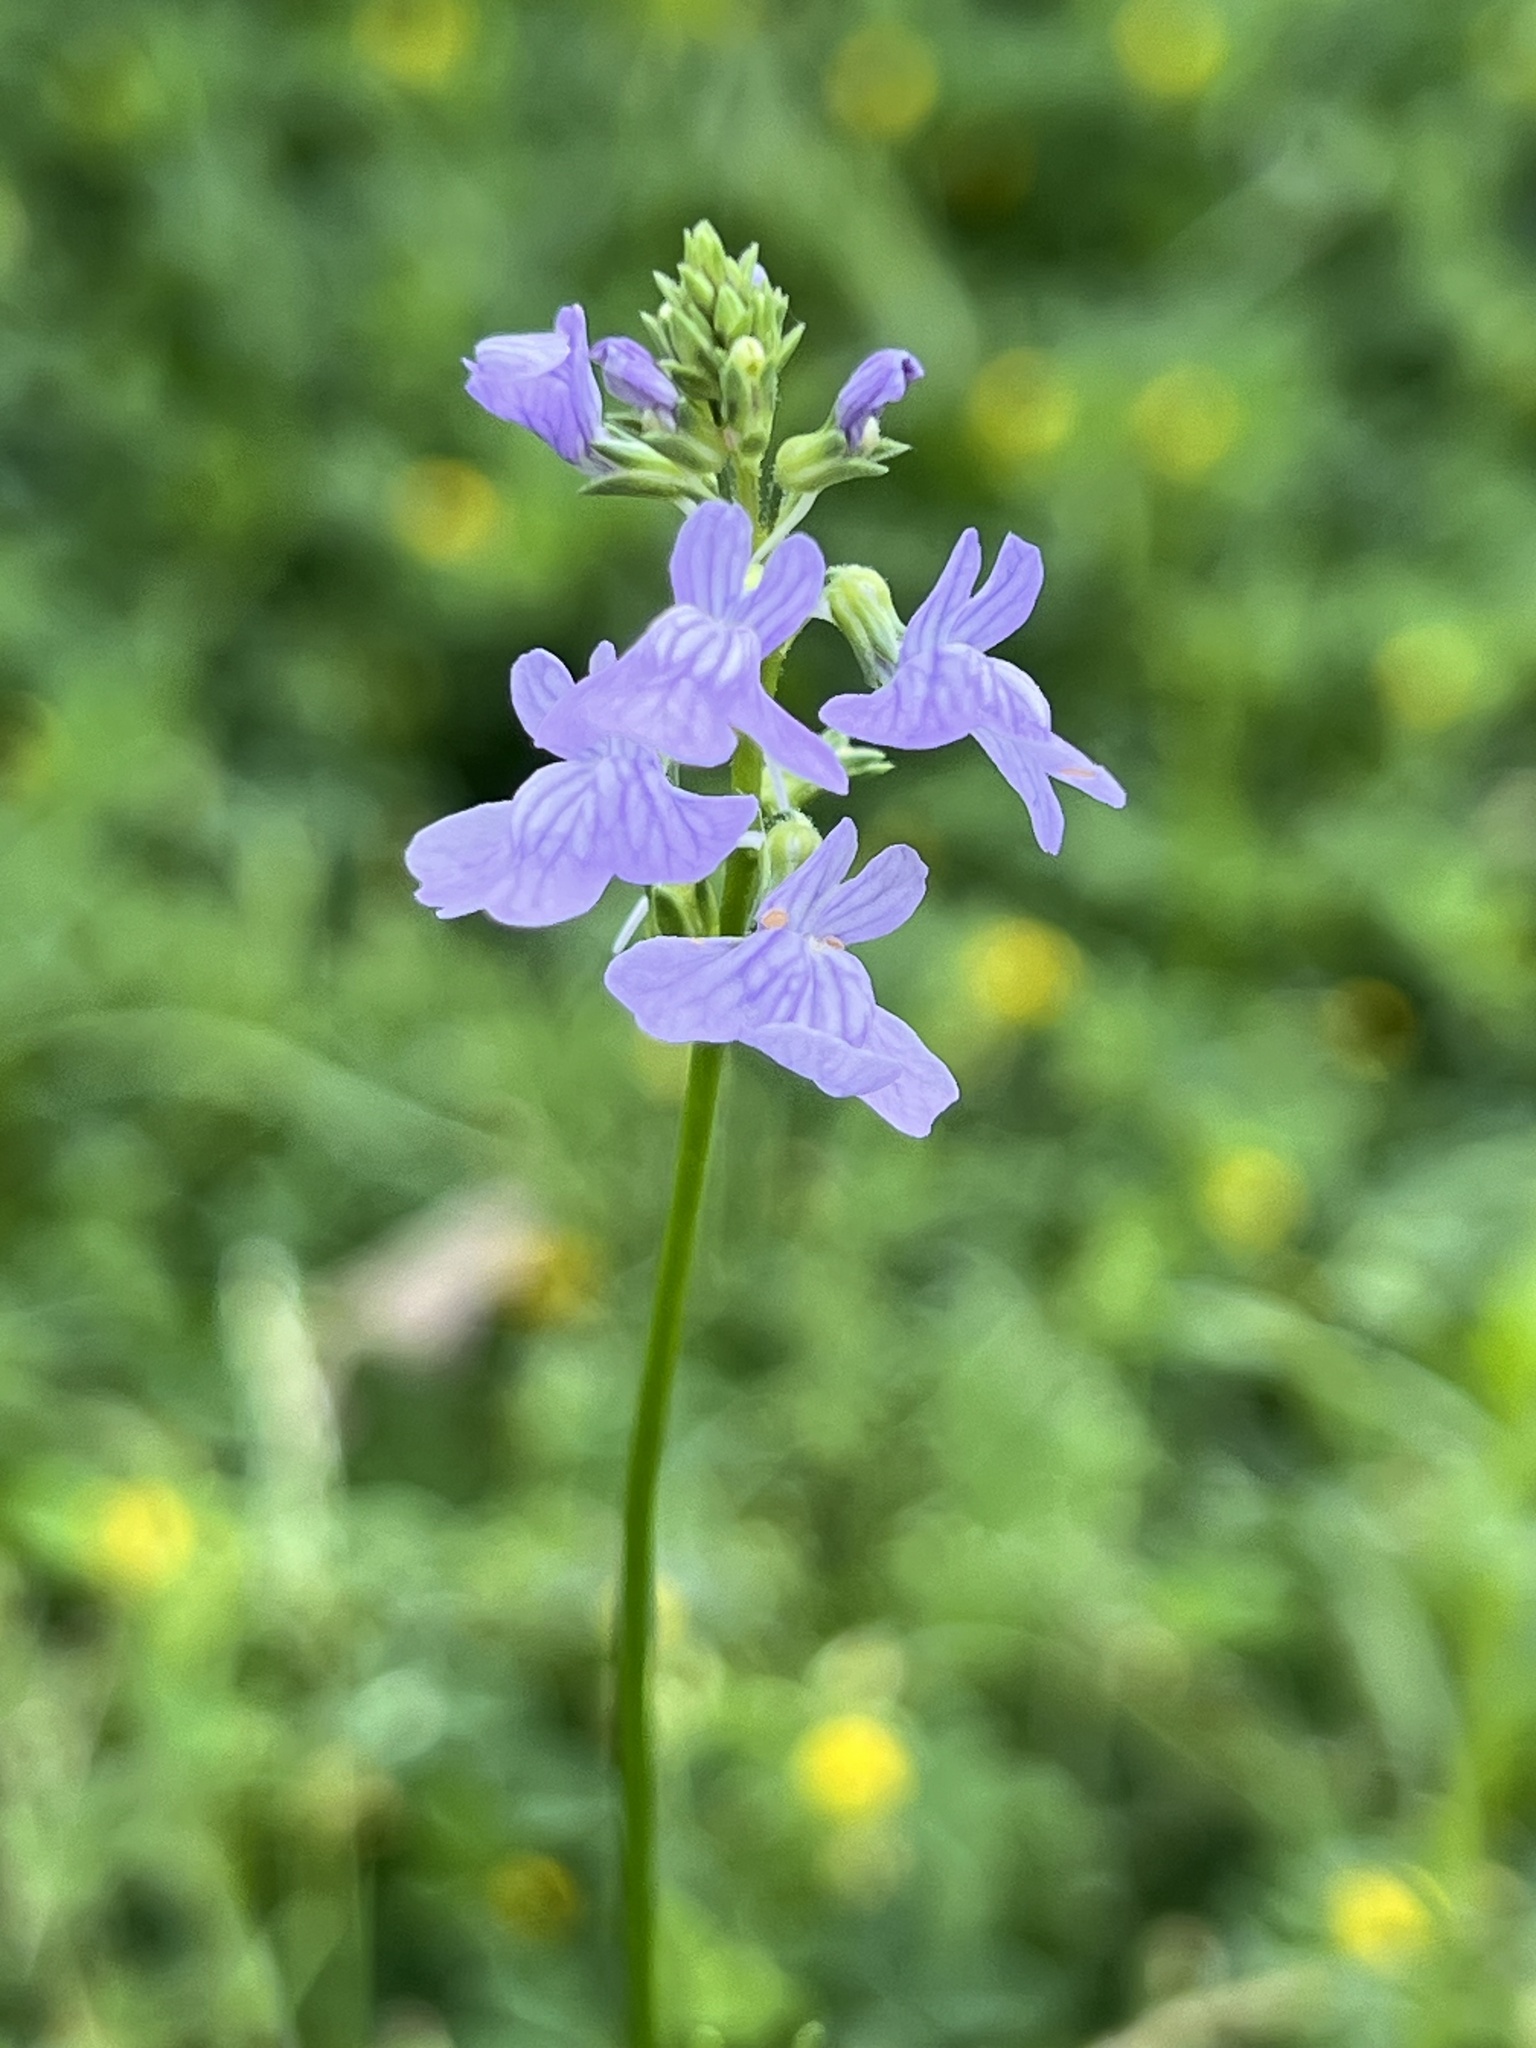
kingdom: Plantae
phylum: Tracheophyta
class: Magnoliopsida
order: Lamiales
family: Plantaginaceae
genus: Nuttallanthus
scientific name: Nuttallanthus texanus
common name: Texas toadflax
